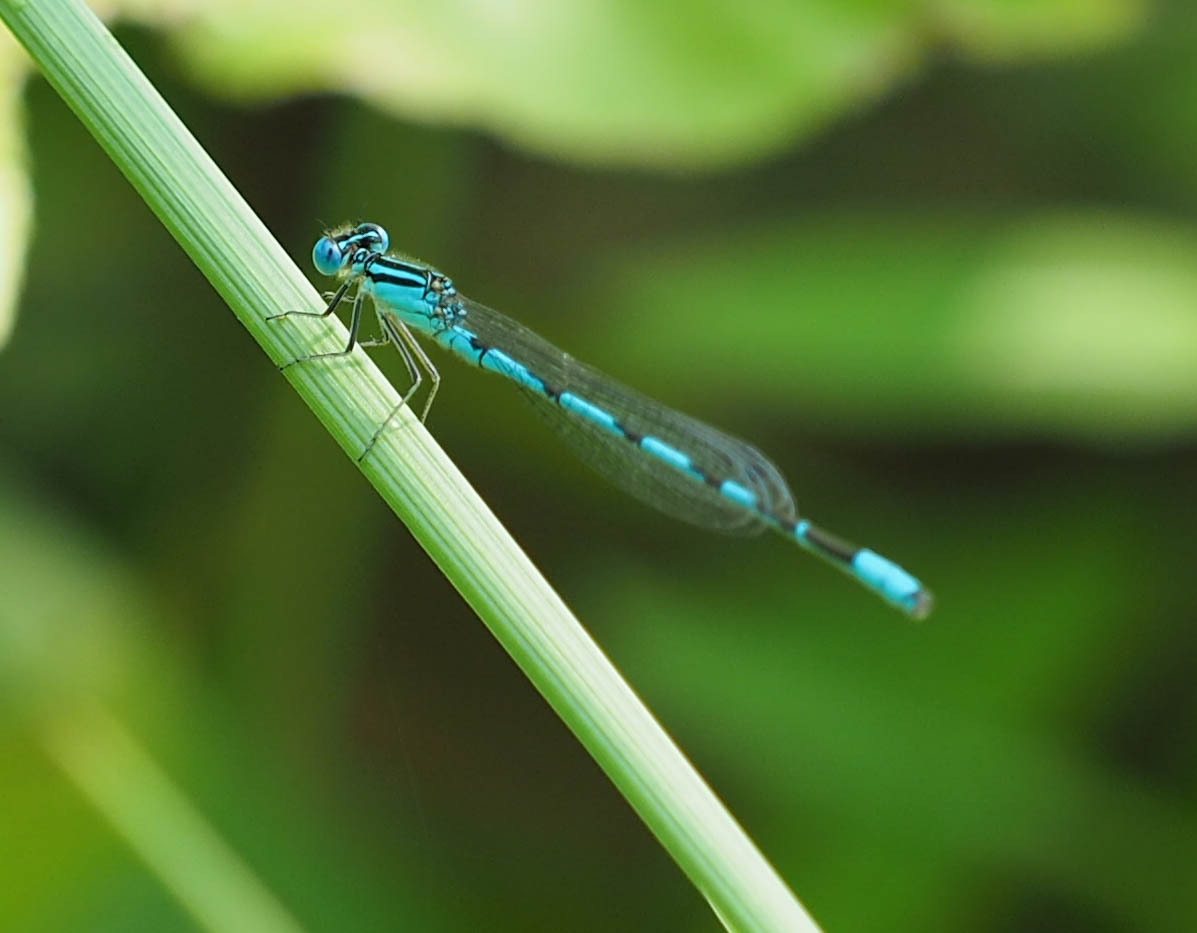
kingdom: Animalia
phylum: Arthropoda
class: Insecta
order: Odonata
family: Coenagrionidae
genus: Enallagma
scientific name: Enallagma durum
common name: Big bluet
